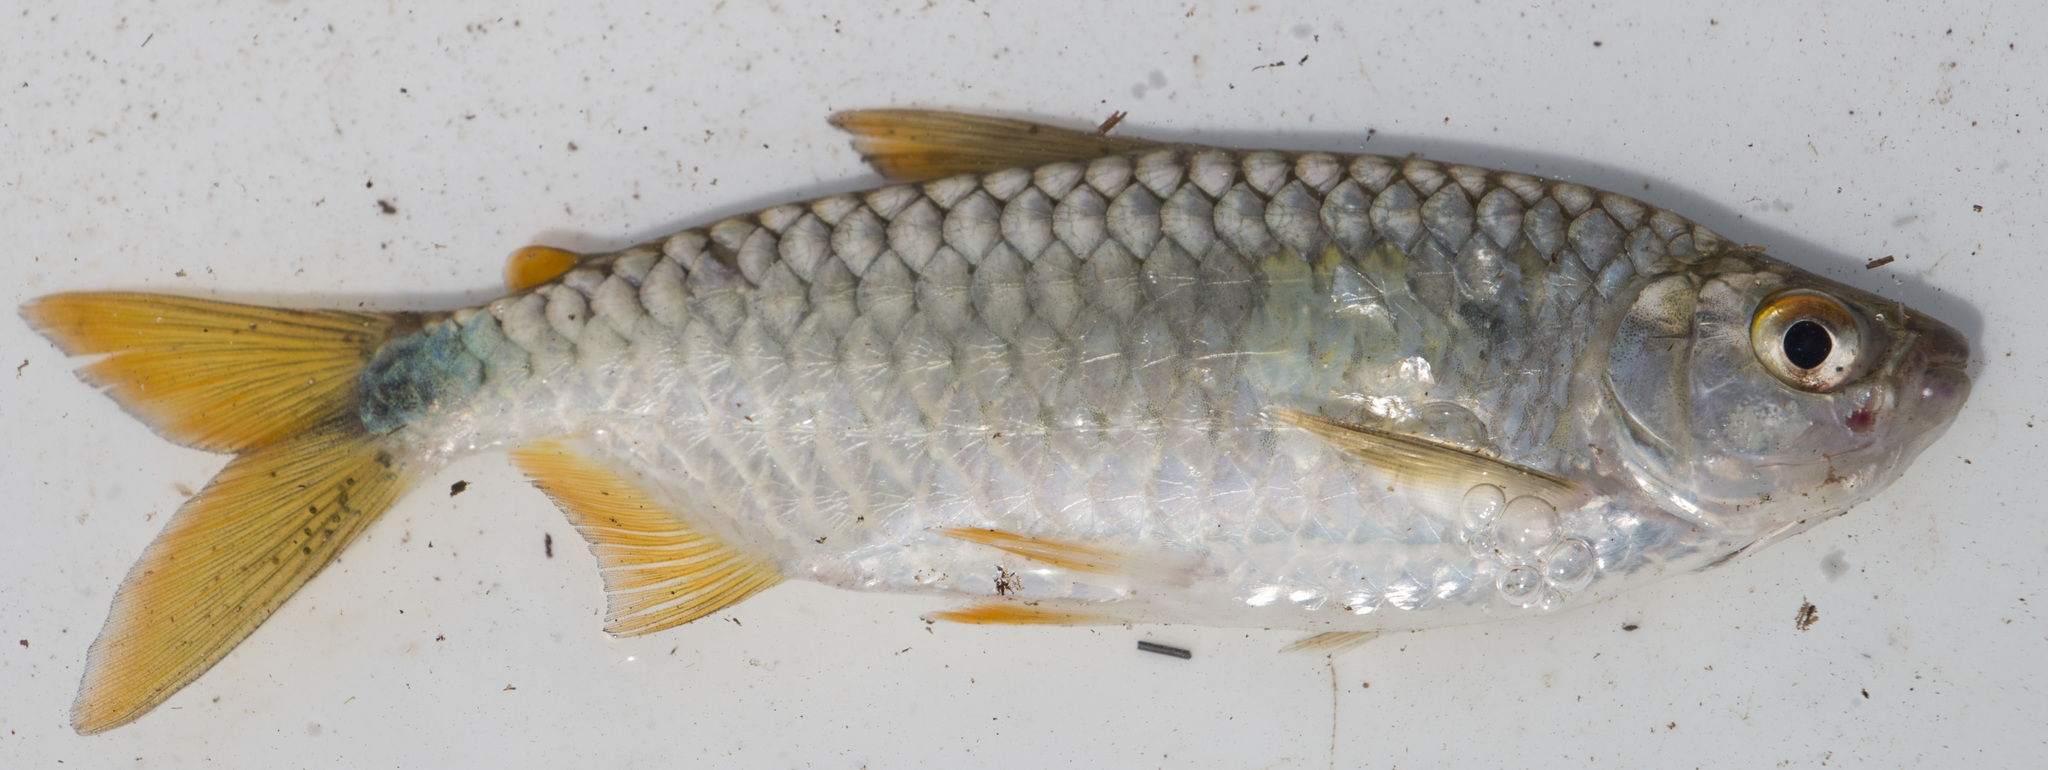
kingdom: Animalia
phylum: Chordata
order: Characiformes
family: Alestidae
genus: Brycinus
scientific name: Brycinus imberi
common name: Imberi
